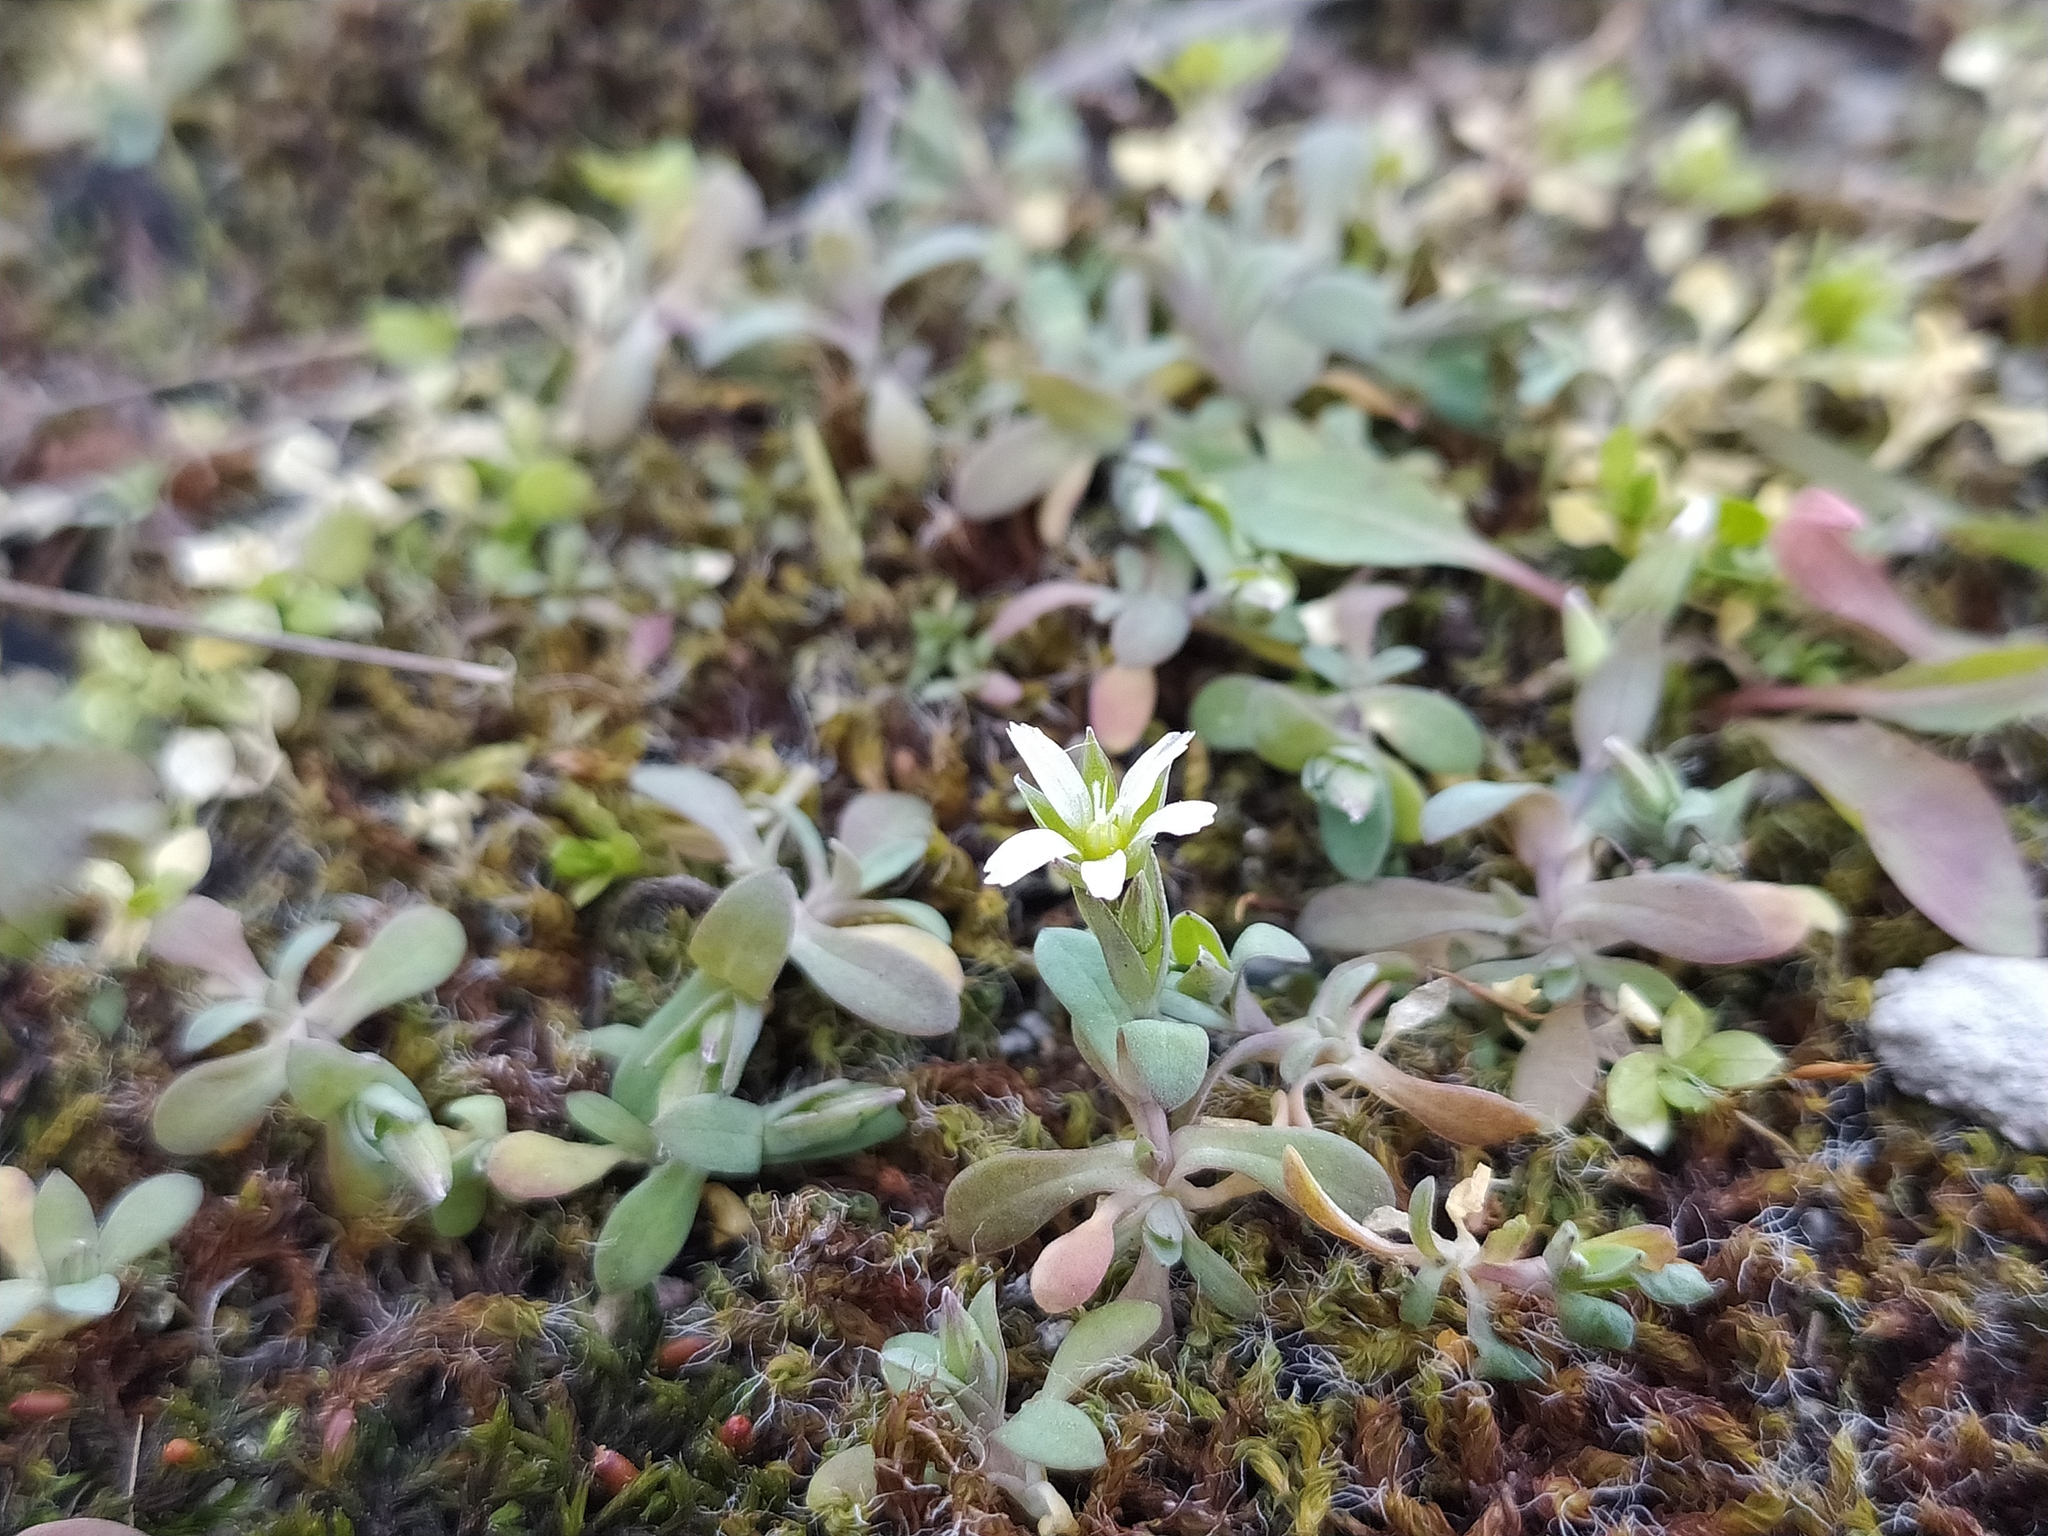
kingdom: Plantae
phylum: Tracheophyta
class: Magnoliopsida
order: Caryophyllales
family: Caryophyllaceae
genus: Holosteum
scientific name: Holosteum umbellatum
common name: Jagged chickweed
